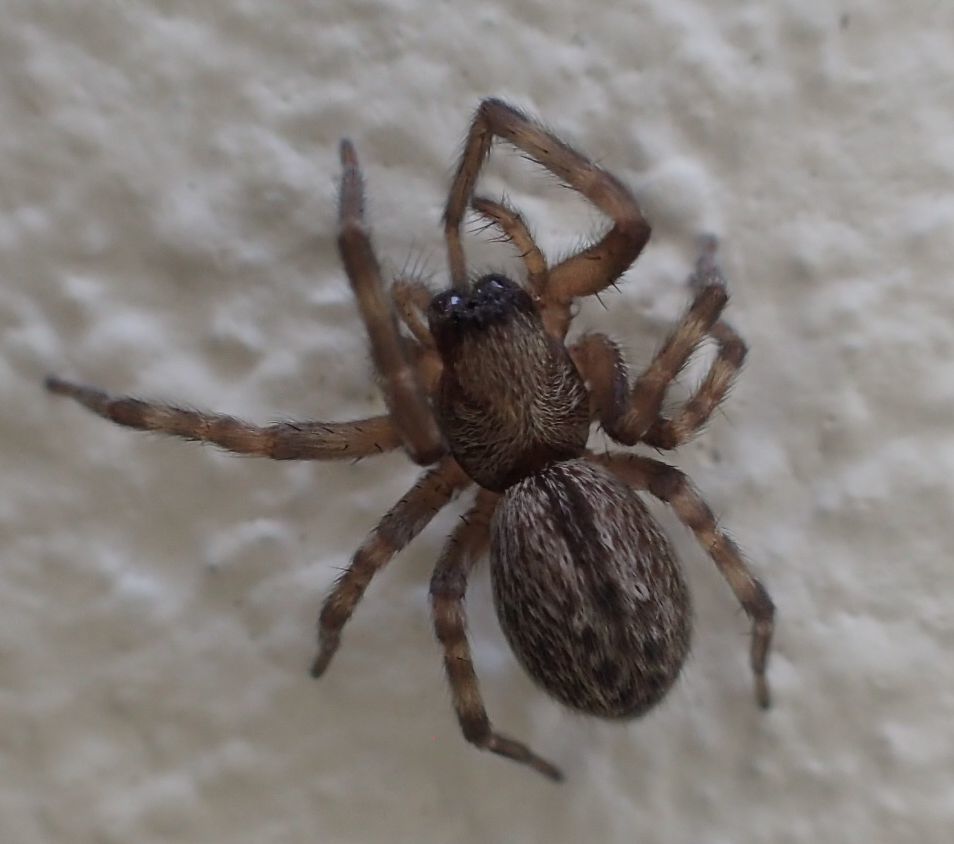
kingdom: Animalia
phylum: Arthropoda
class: Arachnida
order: Araneae
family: Desidae
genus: Badumna
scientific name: Badumna longinqua
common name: Gray house spider
